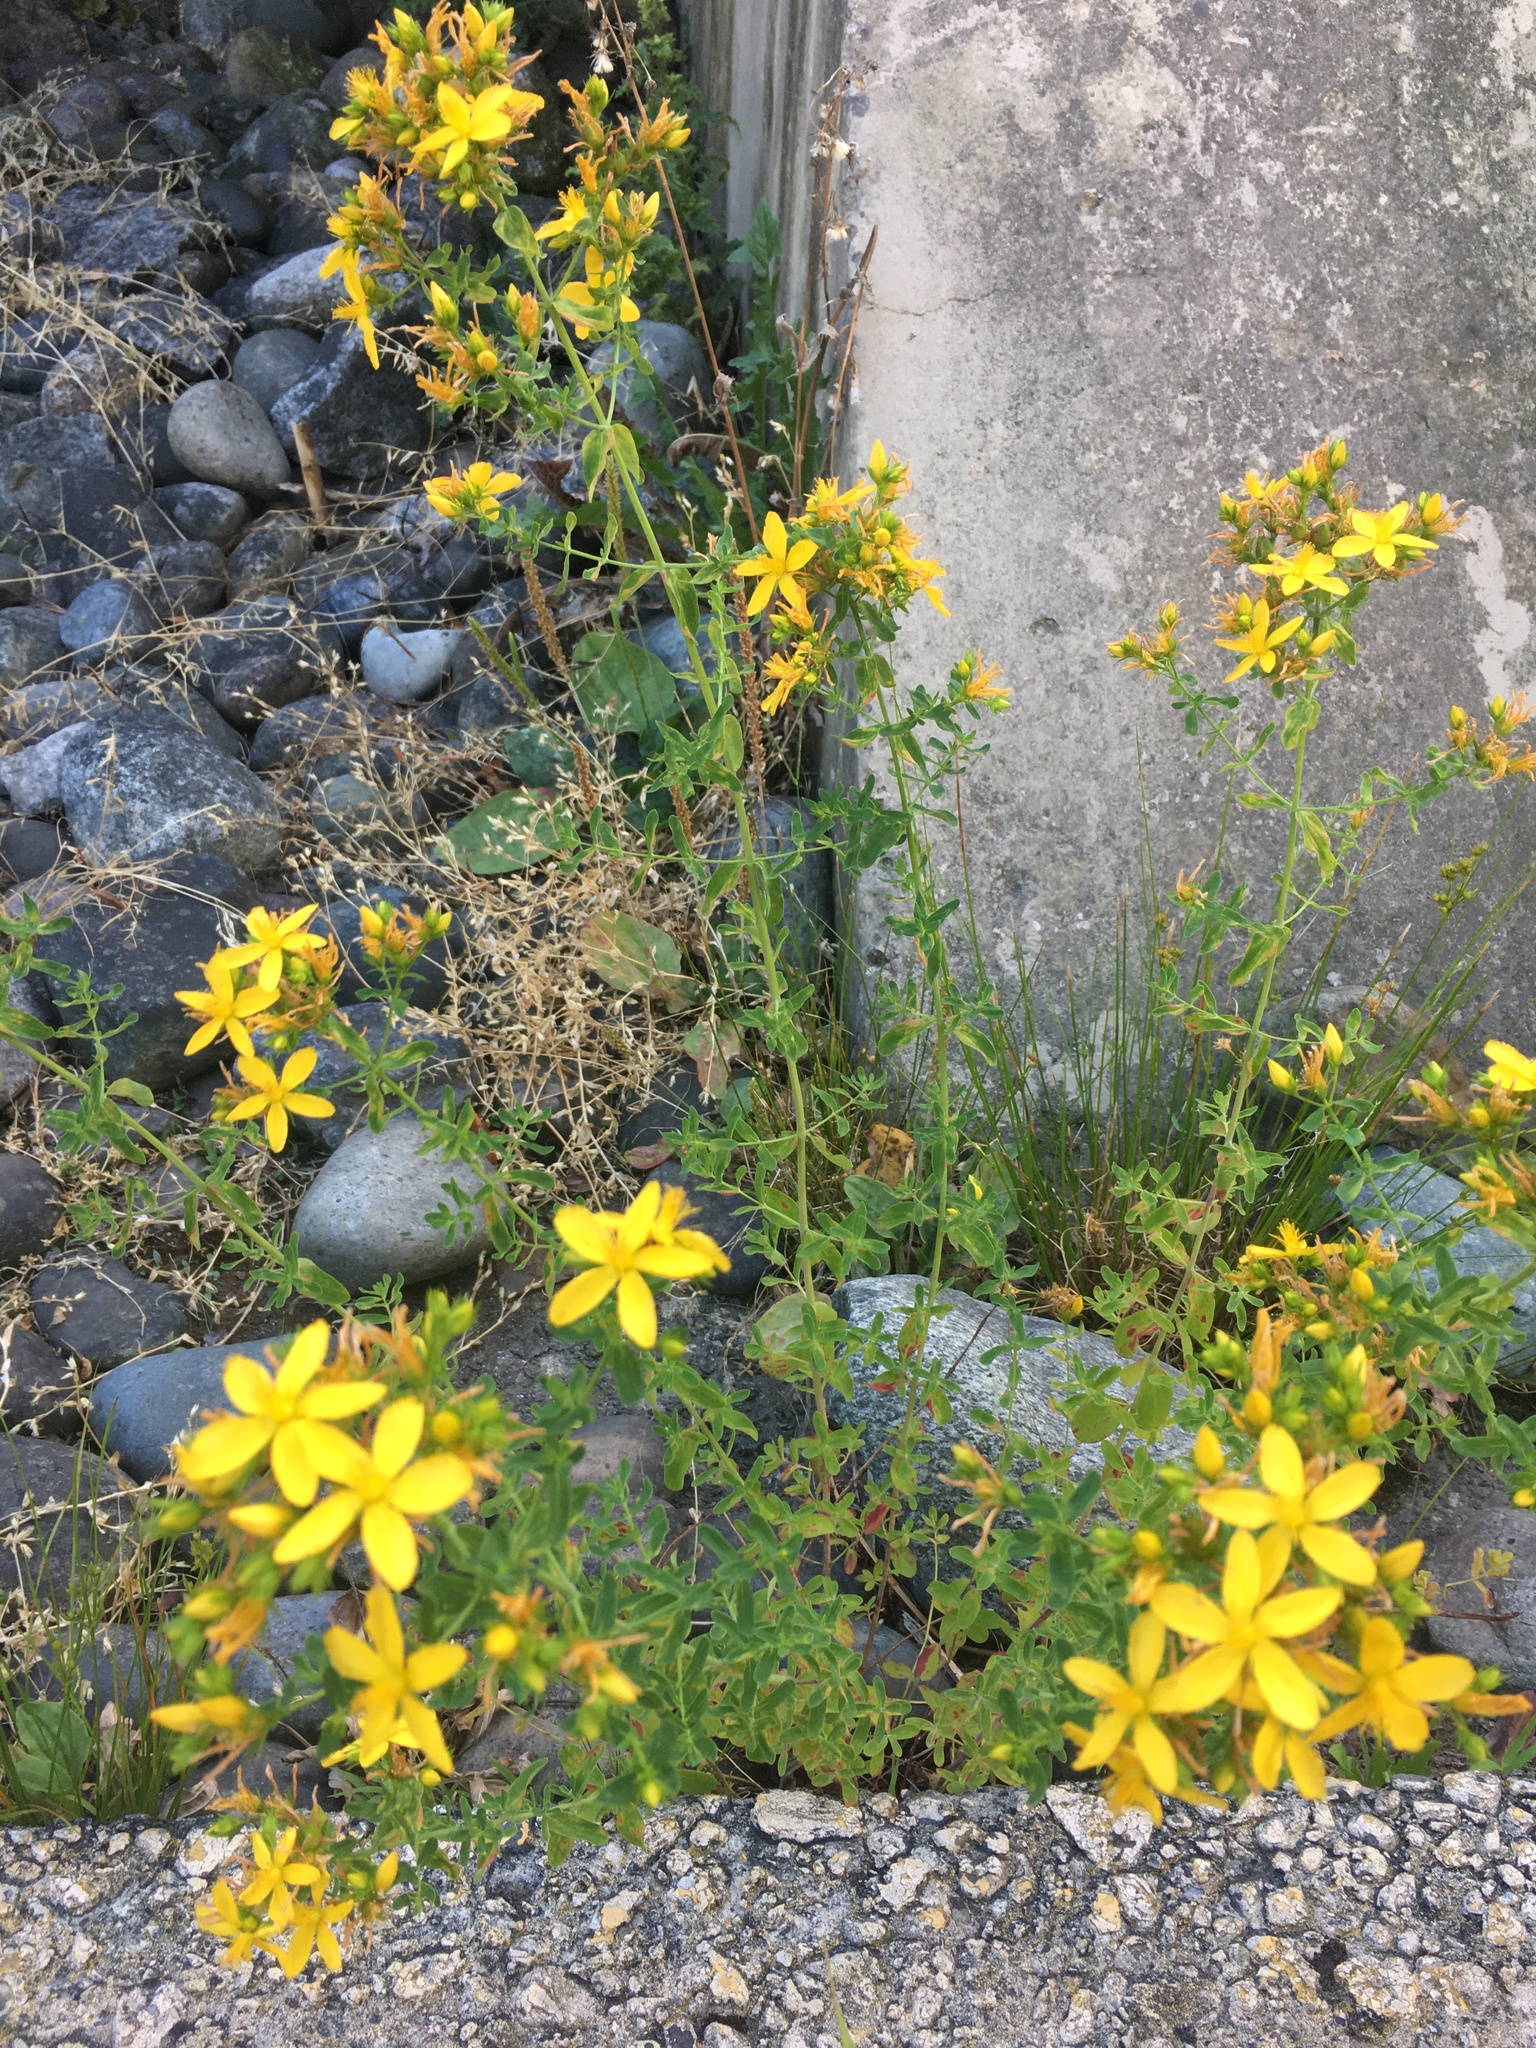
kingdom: Plantae
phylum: Tracheophyta
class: Magnoliopsida
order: Malpighiales
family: Hypericaceae
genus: Hypericum
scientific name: Hypericum perforatum
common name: Common st. johnswort
